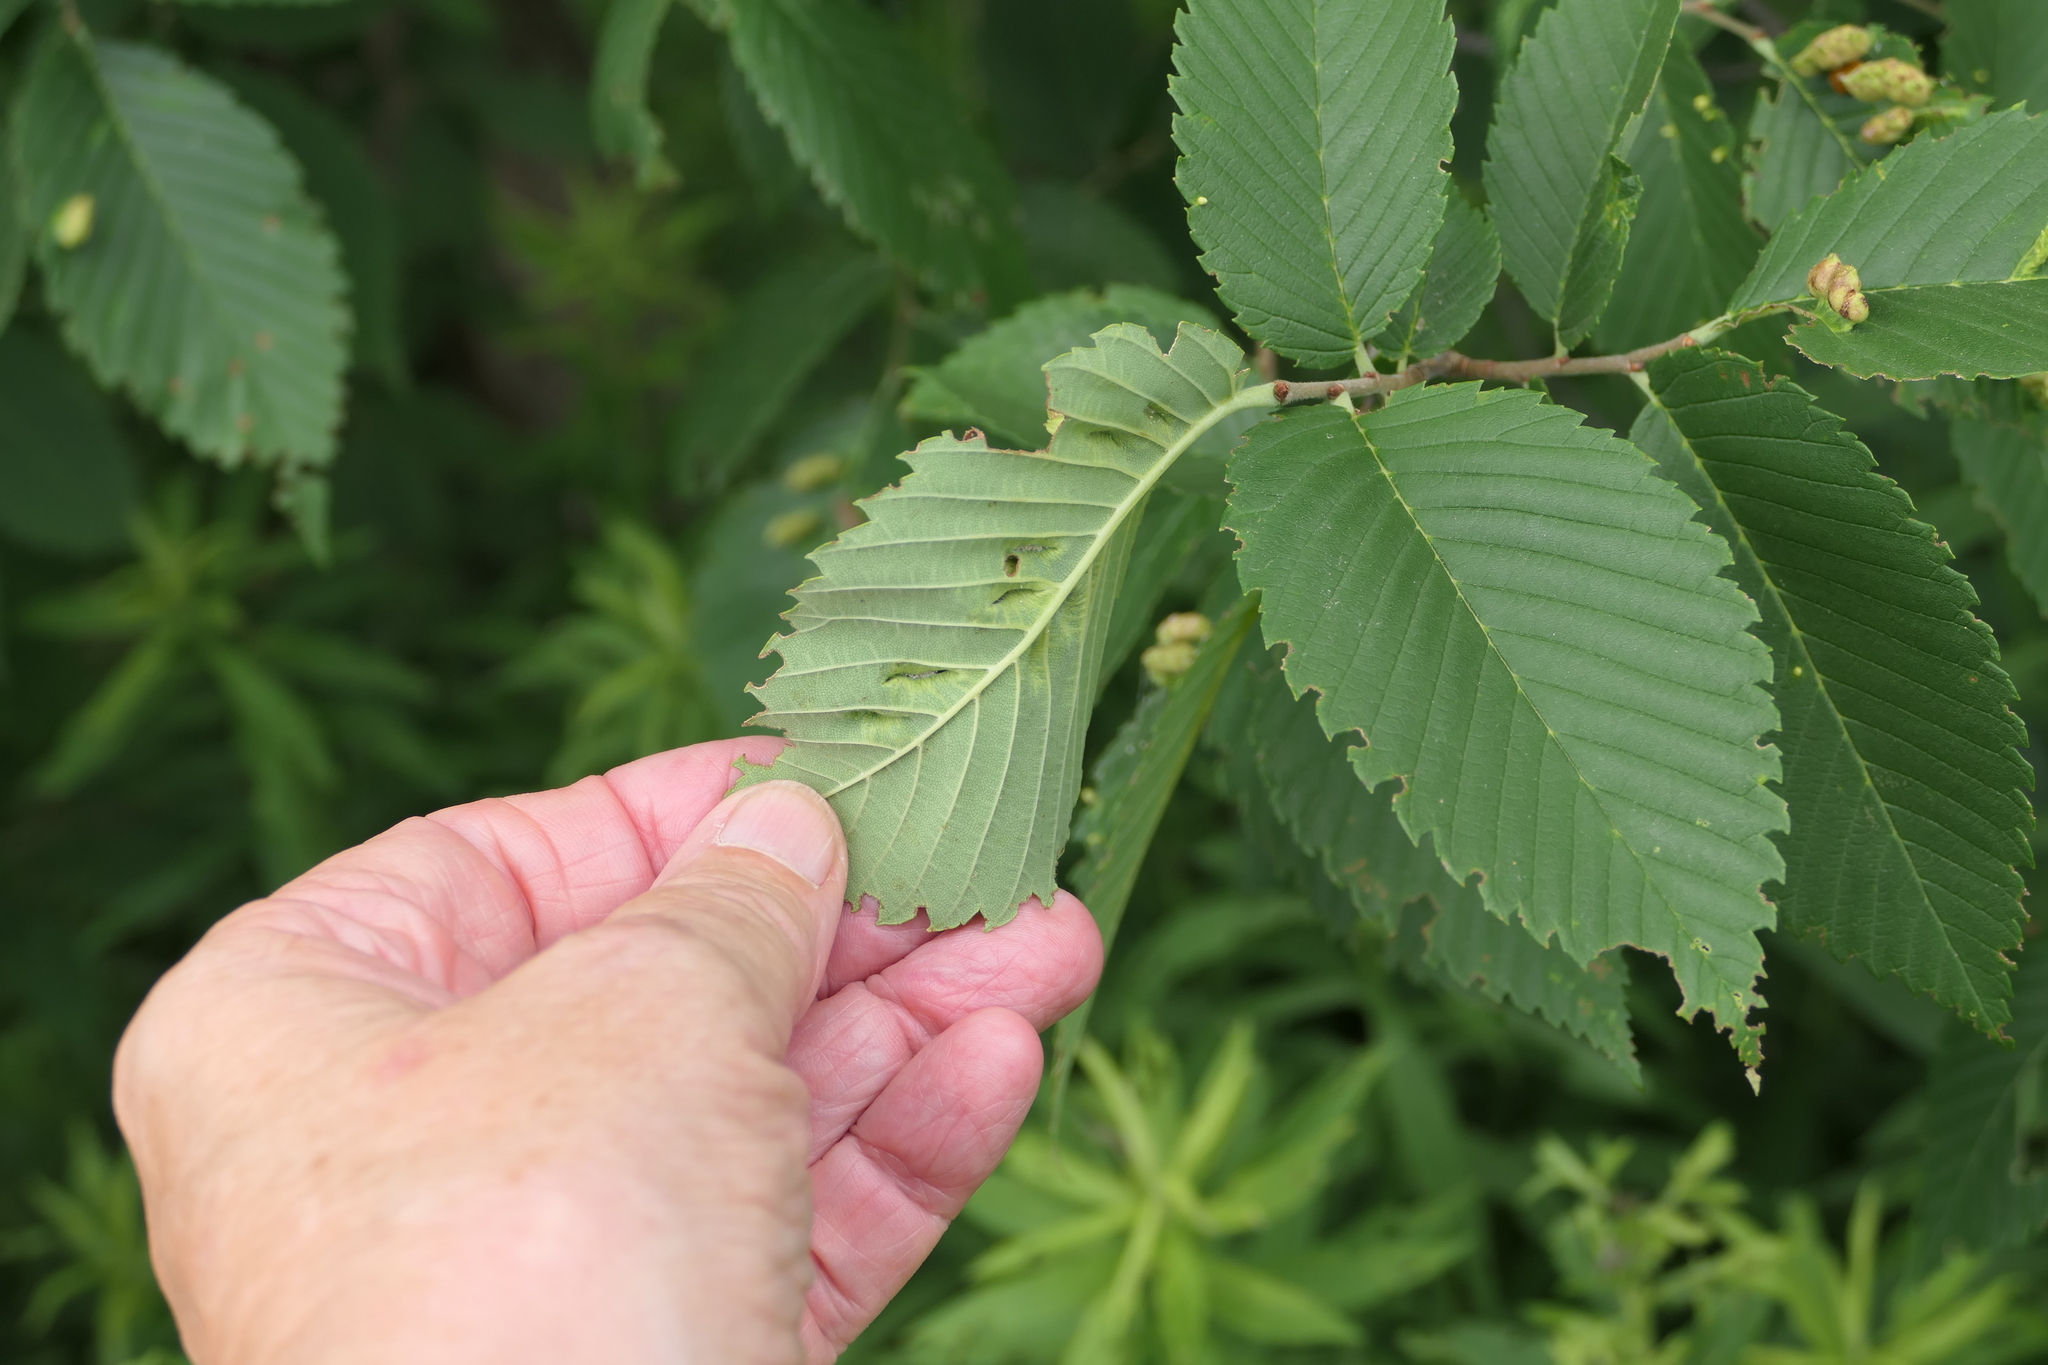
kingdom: Plantae
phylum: Tracheophyta
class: Magnoliopsida
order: Rosales
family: Ulmaceae
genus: Ulmus
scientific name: Ulmus americana
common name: American elm
